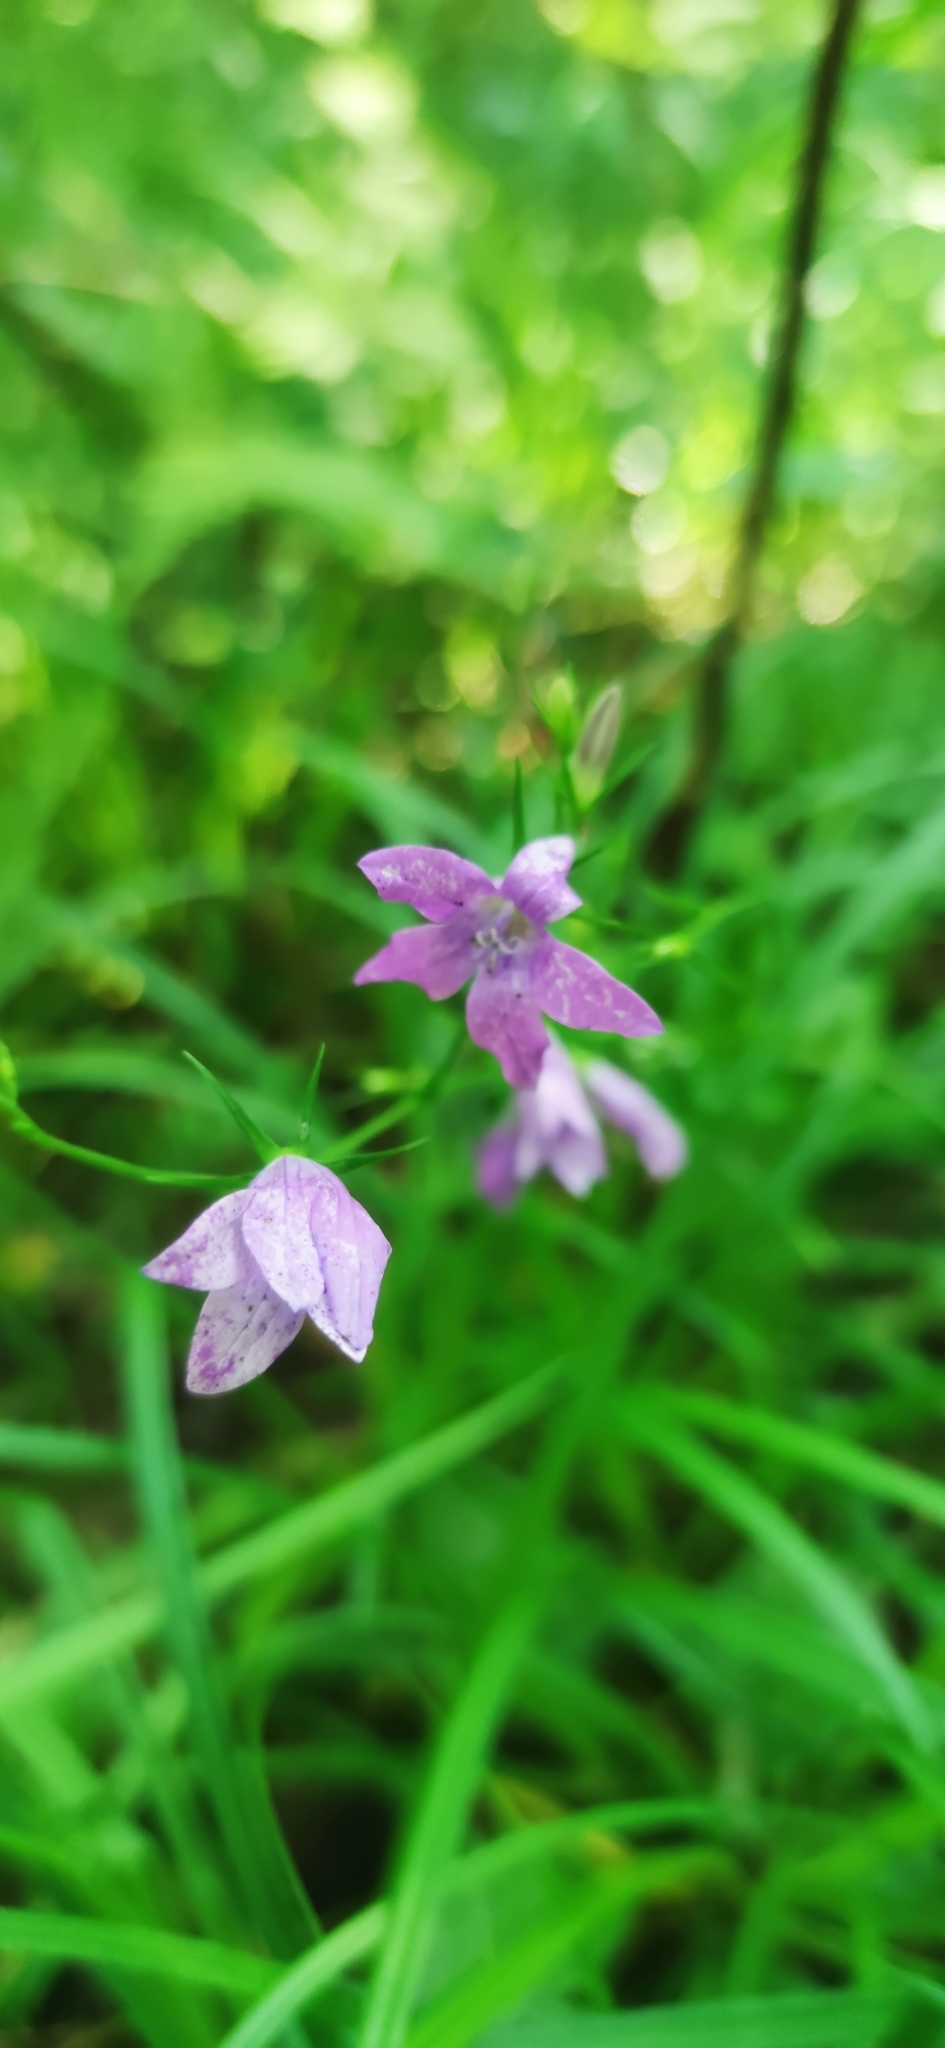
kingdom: Plantae
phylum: Tracheophyta
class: Magnoliopsida
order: Asterales
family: Campanulaceae
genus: Campanula
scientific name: Campanula patula
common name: Spreading bellflower
